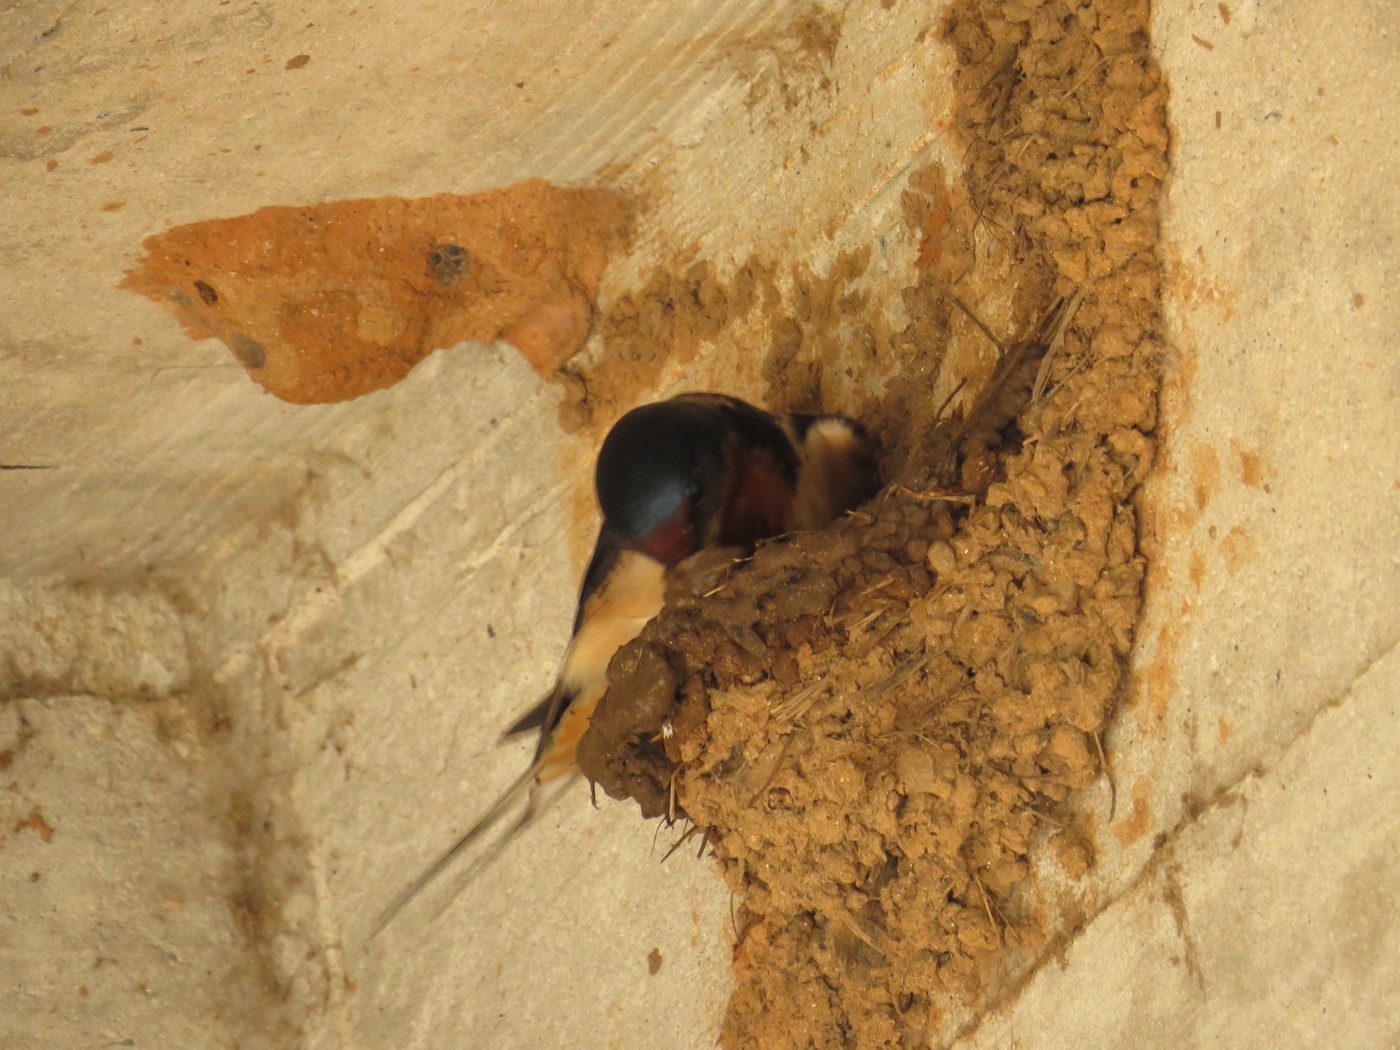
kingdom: Animalia
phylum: Chordata
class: Aves
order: Passeriformes
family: Hirundinidae
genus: Hirundo
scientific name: Hirundo rustica
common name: Barn swallow
